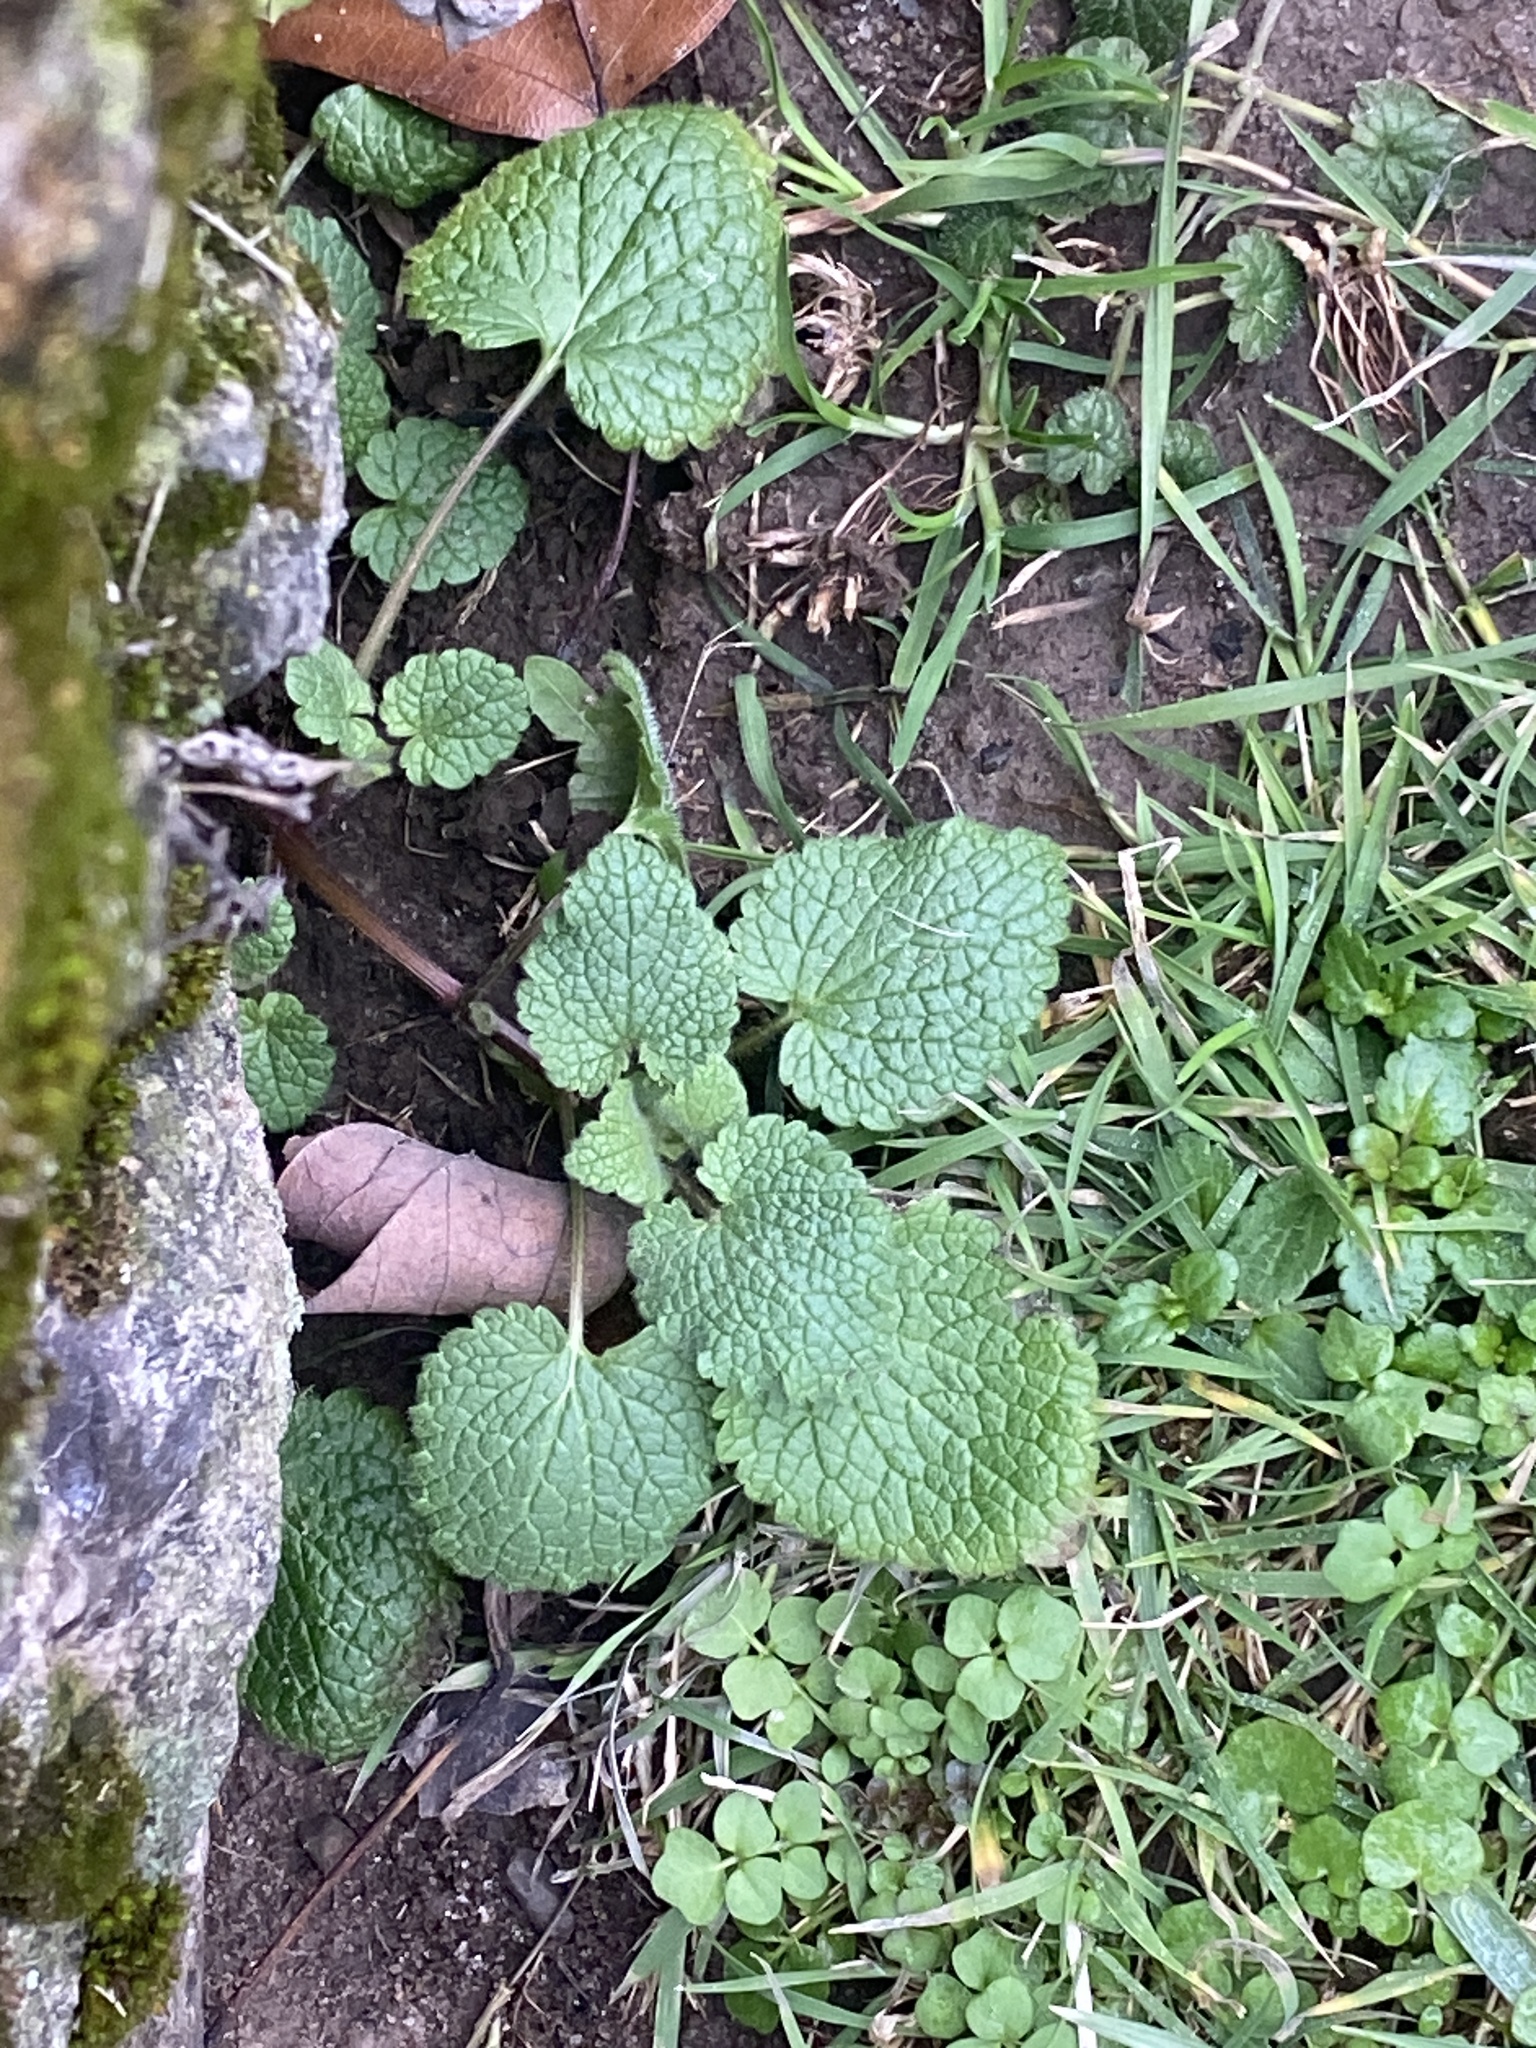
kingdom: Plantae
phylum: Tracheophyta
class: Magnoliopsida
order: Lamiales
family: Lamiaceae
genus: Lamium
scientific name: Lamium purpureum
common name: Red dead-nettle
